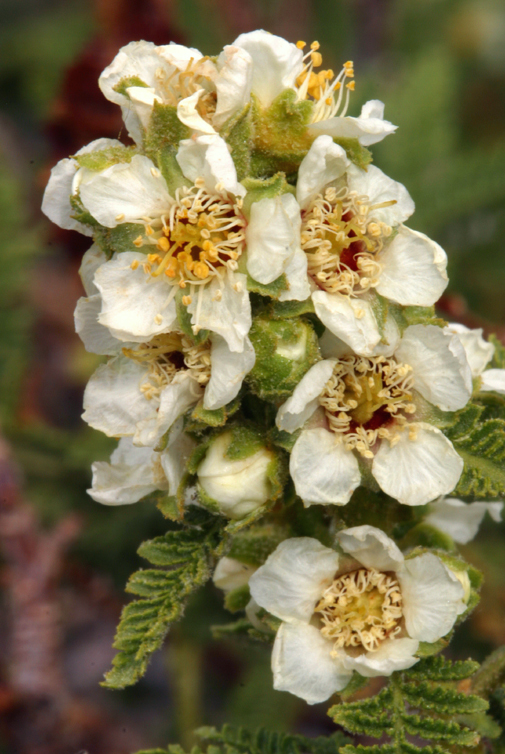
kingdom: Plantae
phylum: Tracheophyta
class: Magnoliopsida
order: Rosales
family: Rosaceae
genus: Chamaebatiaria
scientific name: Chamaebatiaria millefolium
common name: Fernbush
